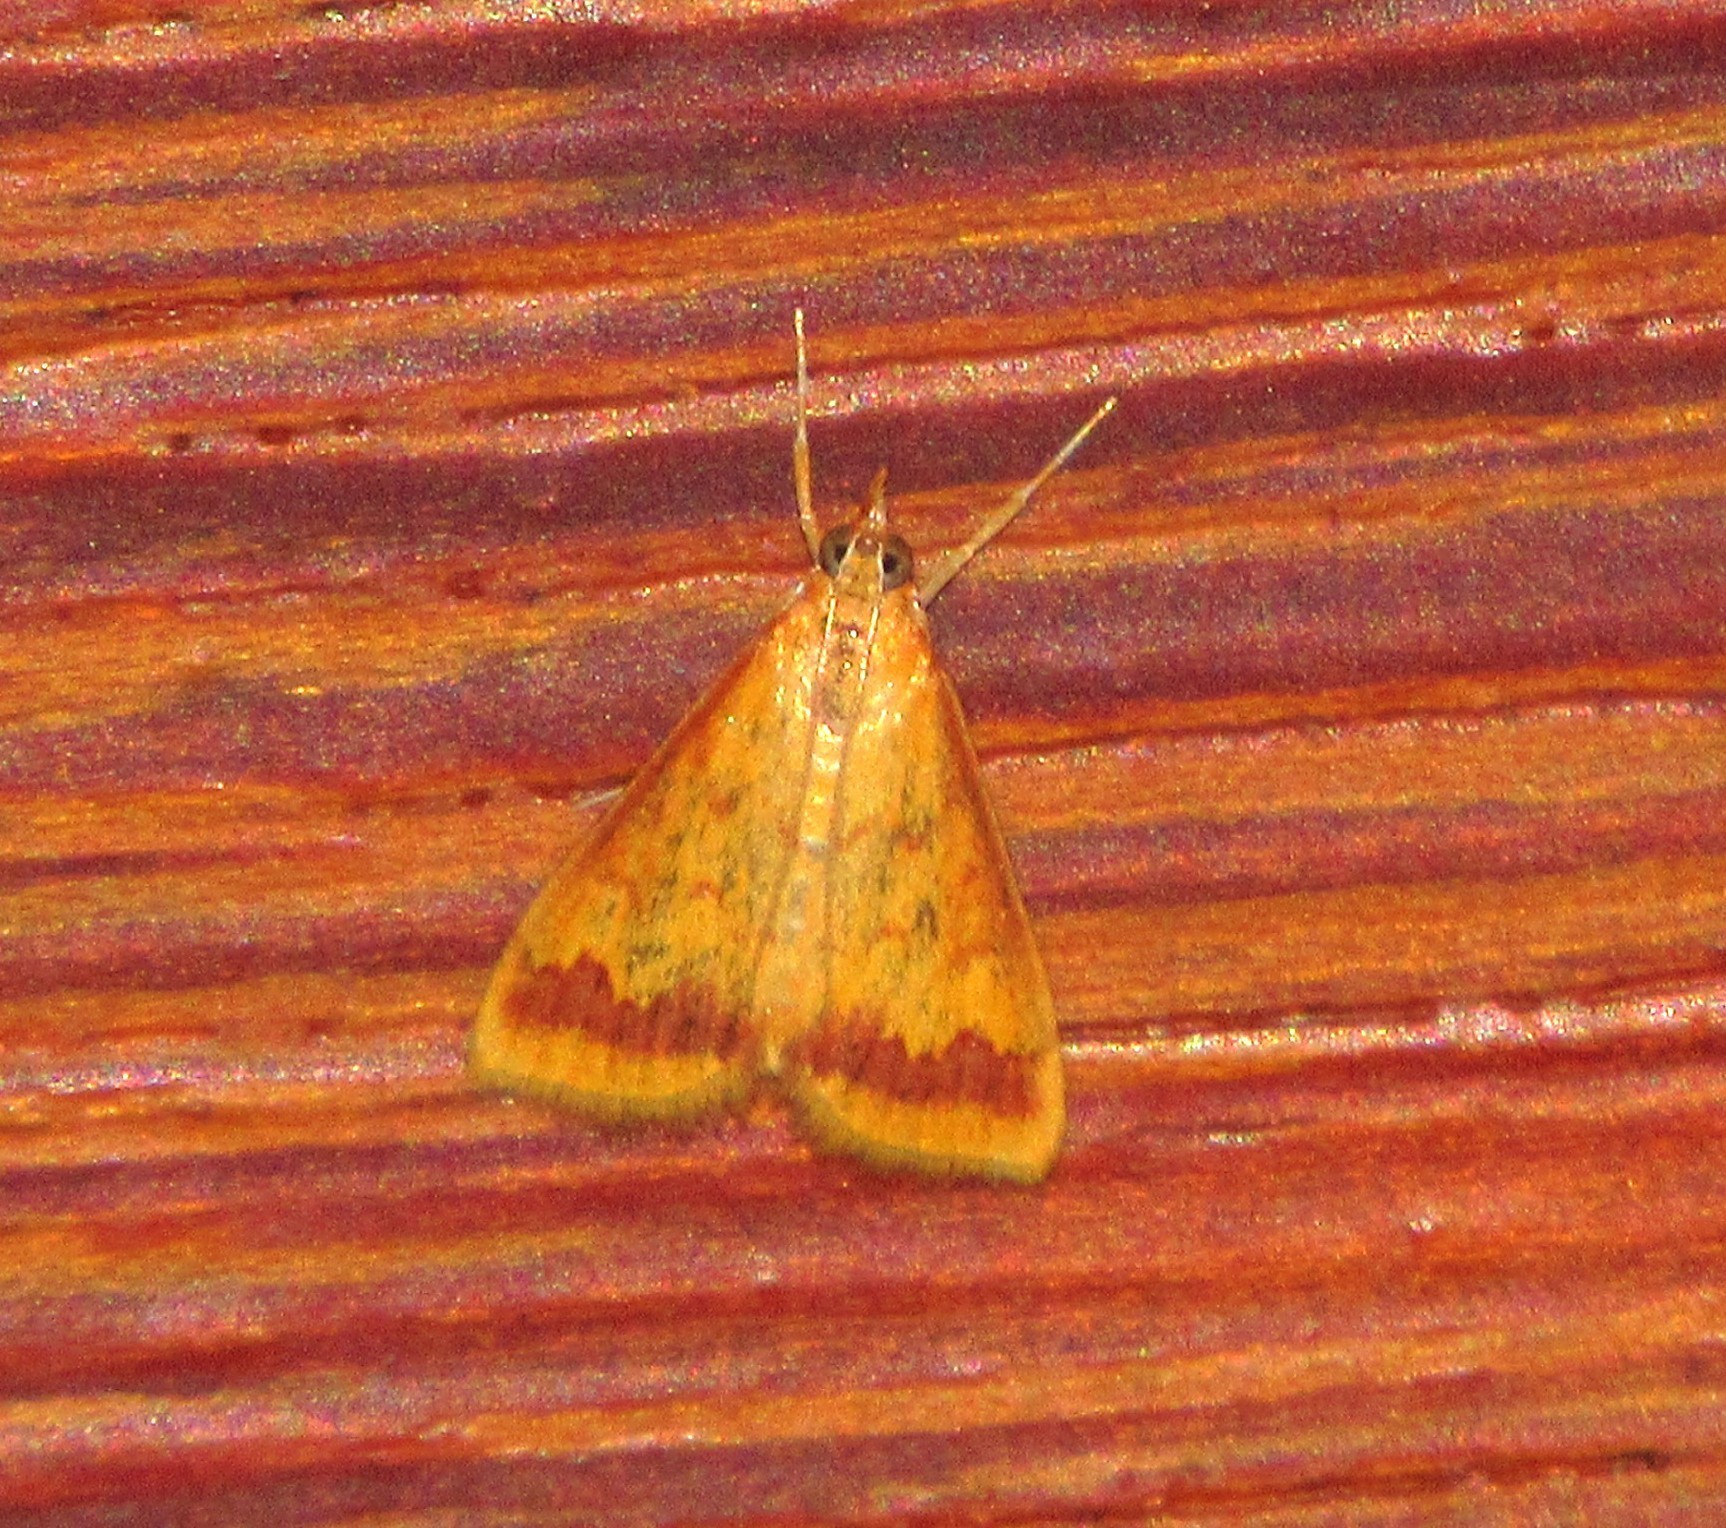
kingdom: Animalia
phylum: Arthropoda
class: Insecta
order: Lepidoptera
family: Crambidae
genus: Hyalorista
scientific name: Hyalorista taeniolalis
